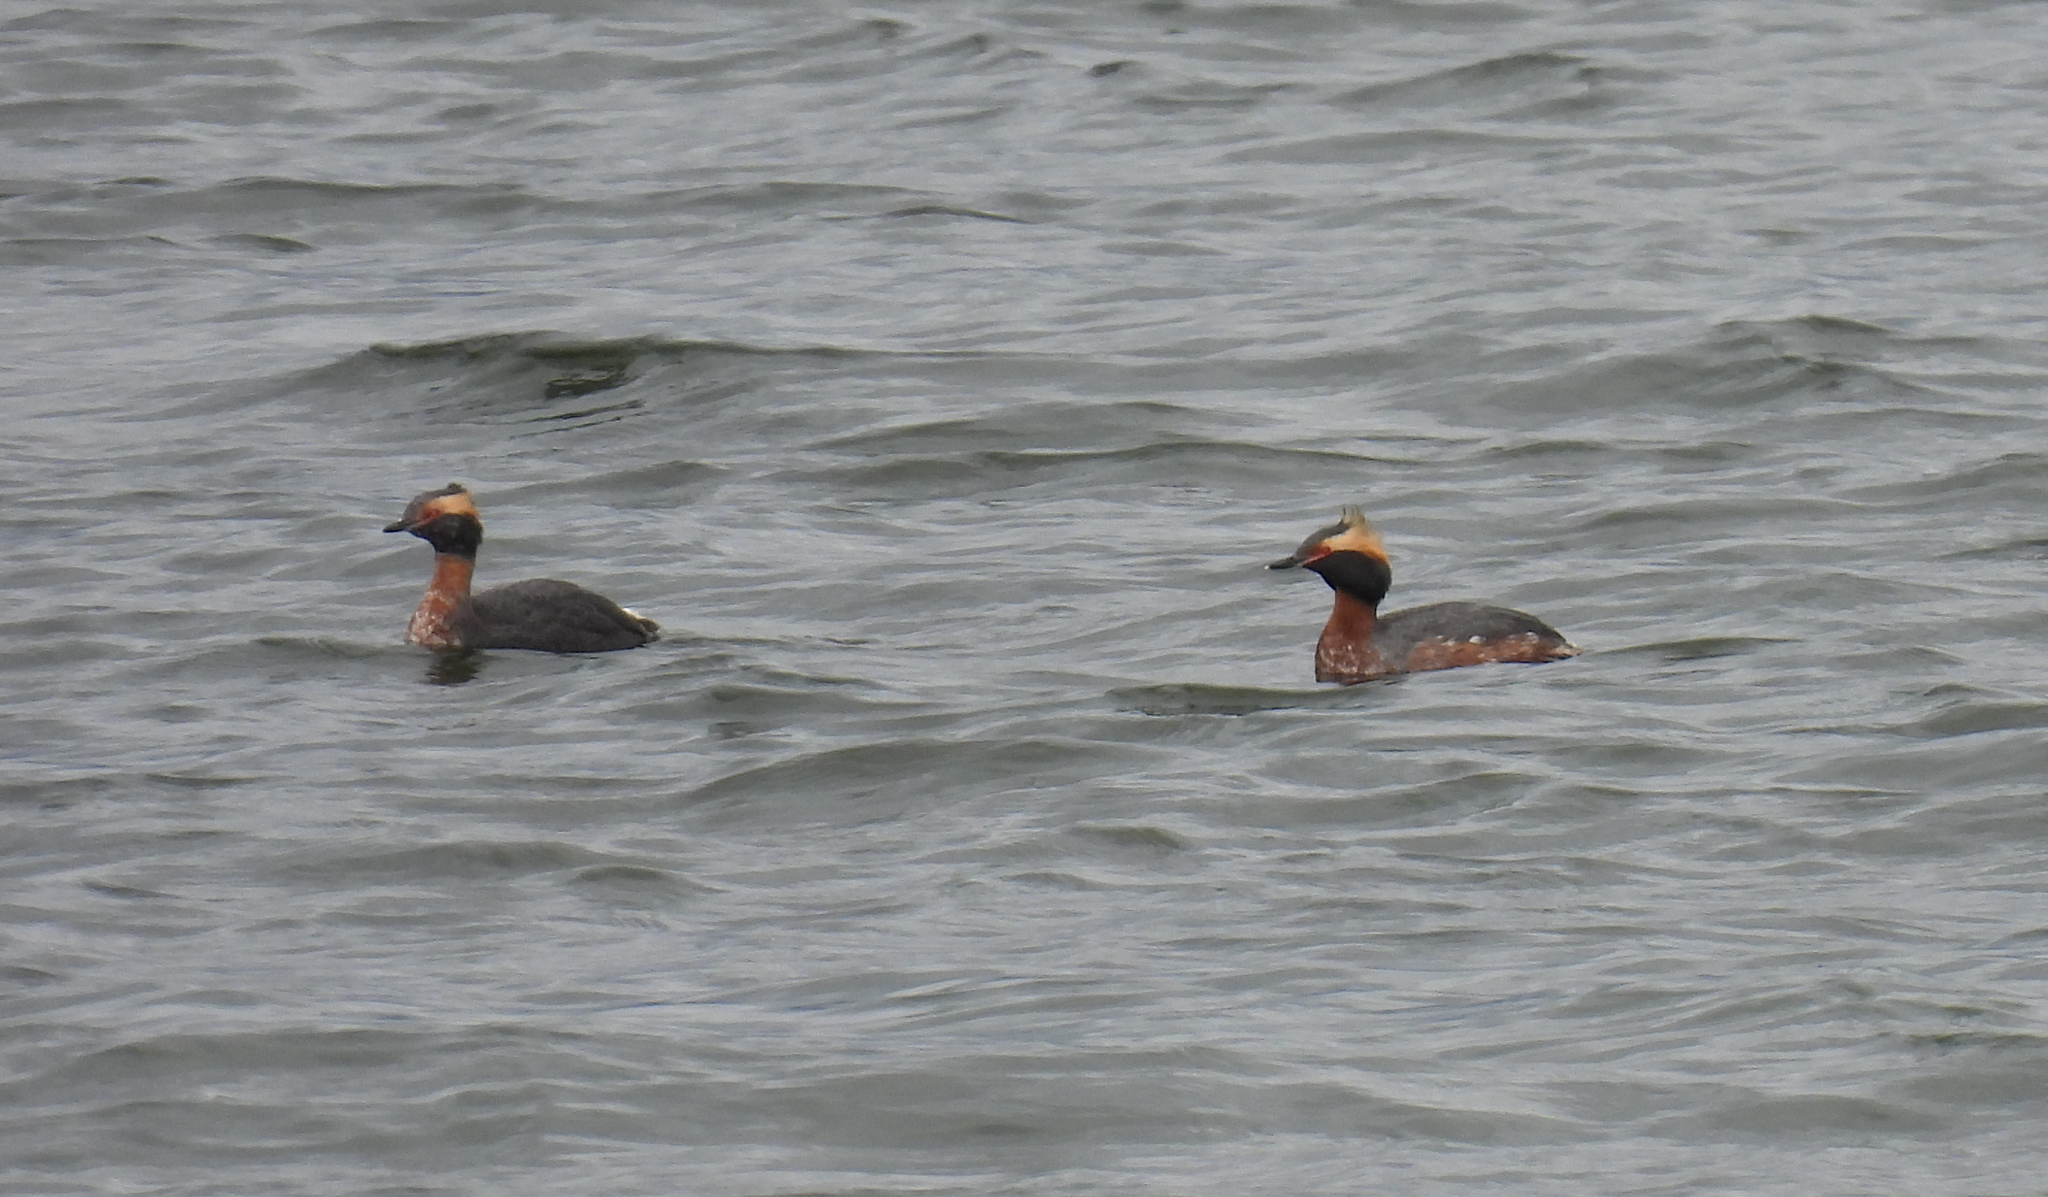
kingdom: Animalia
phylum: Chordata
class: Aves
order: Podicipediformes
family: Podicipedidae
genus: Podiceps
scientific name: Podiceps auritus
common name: Horned grebe
